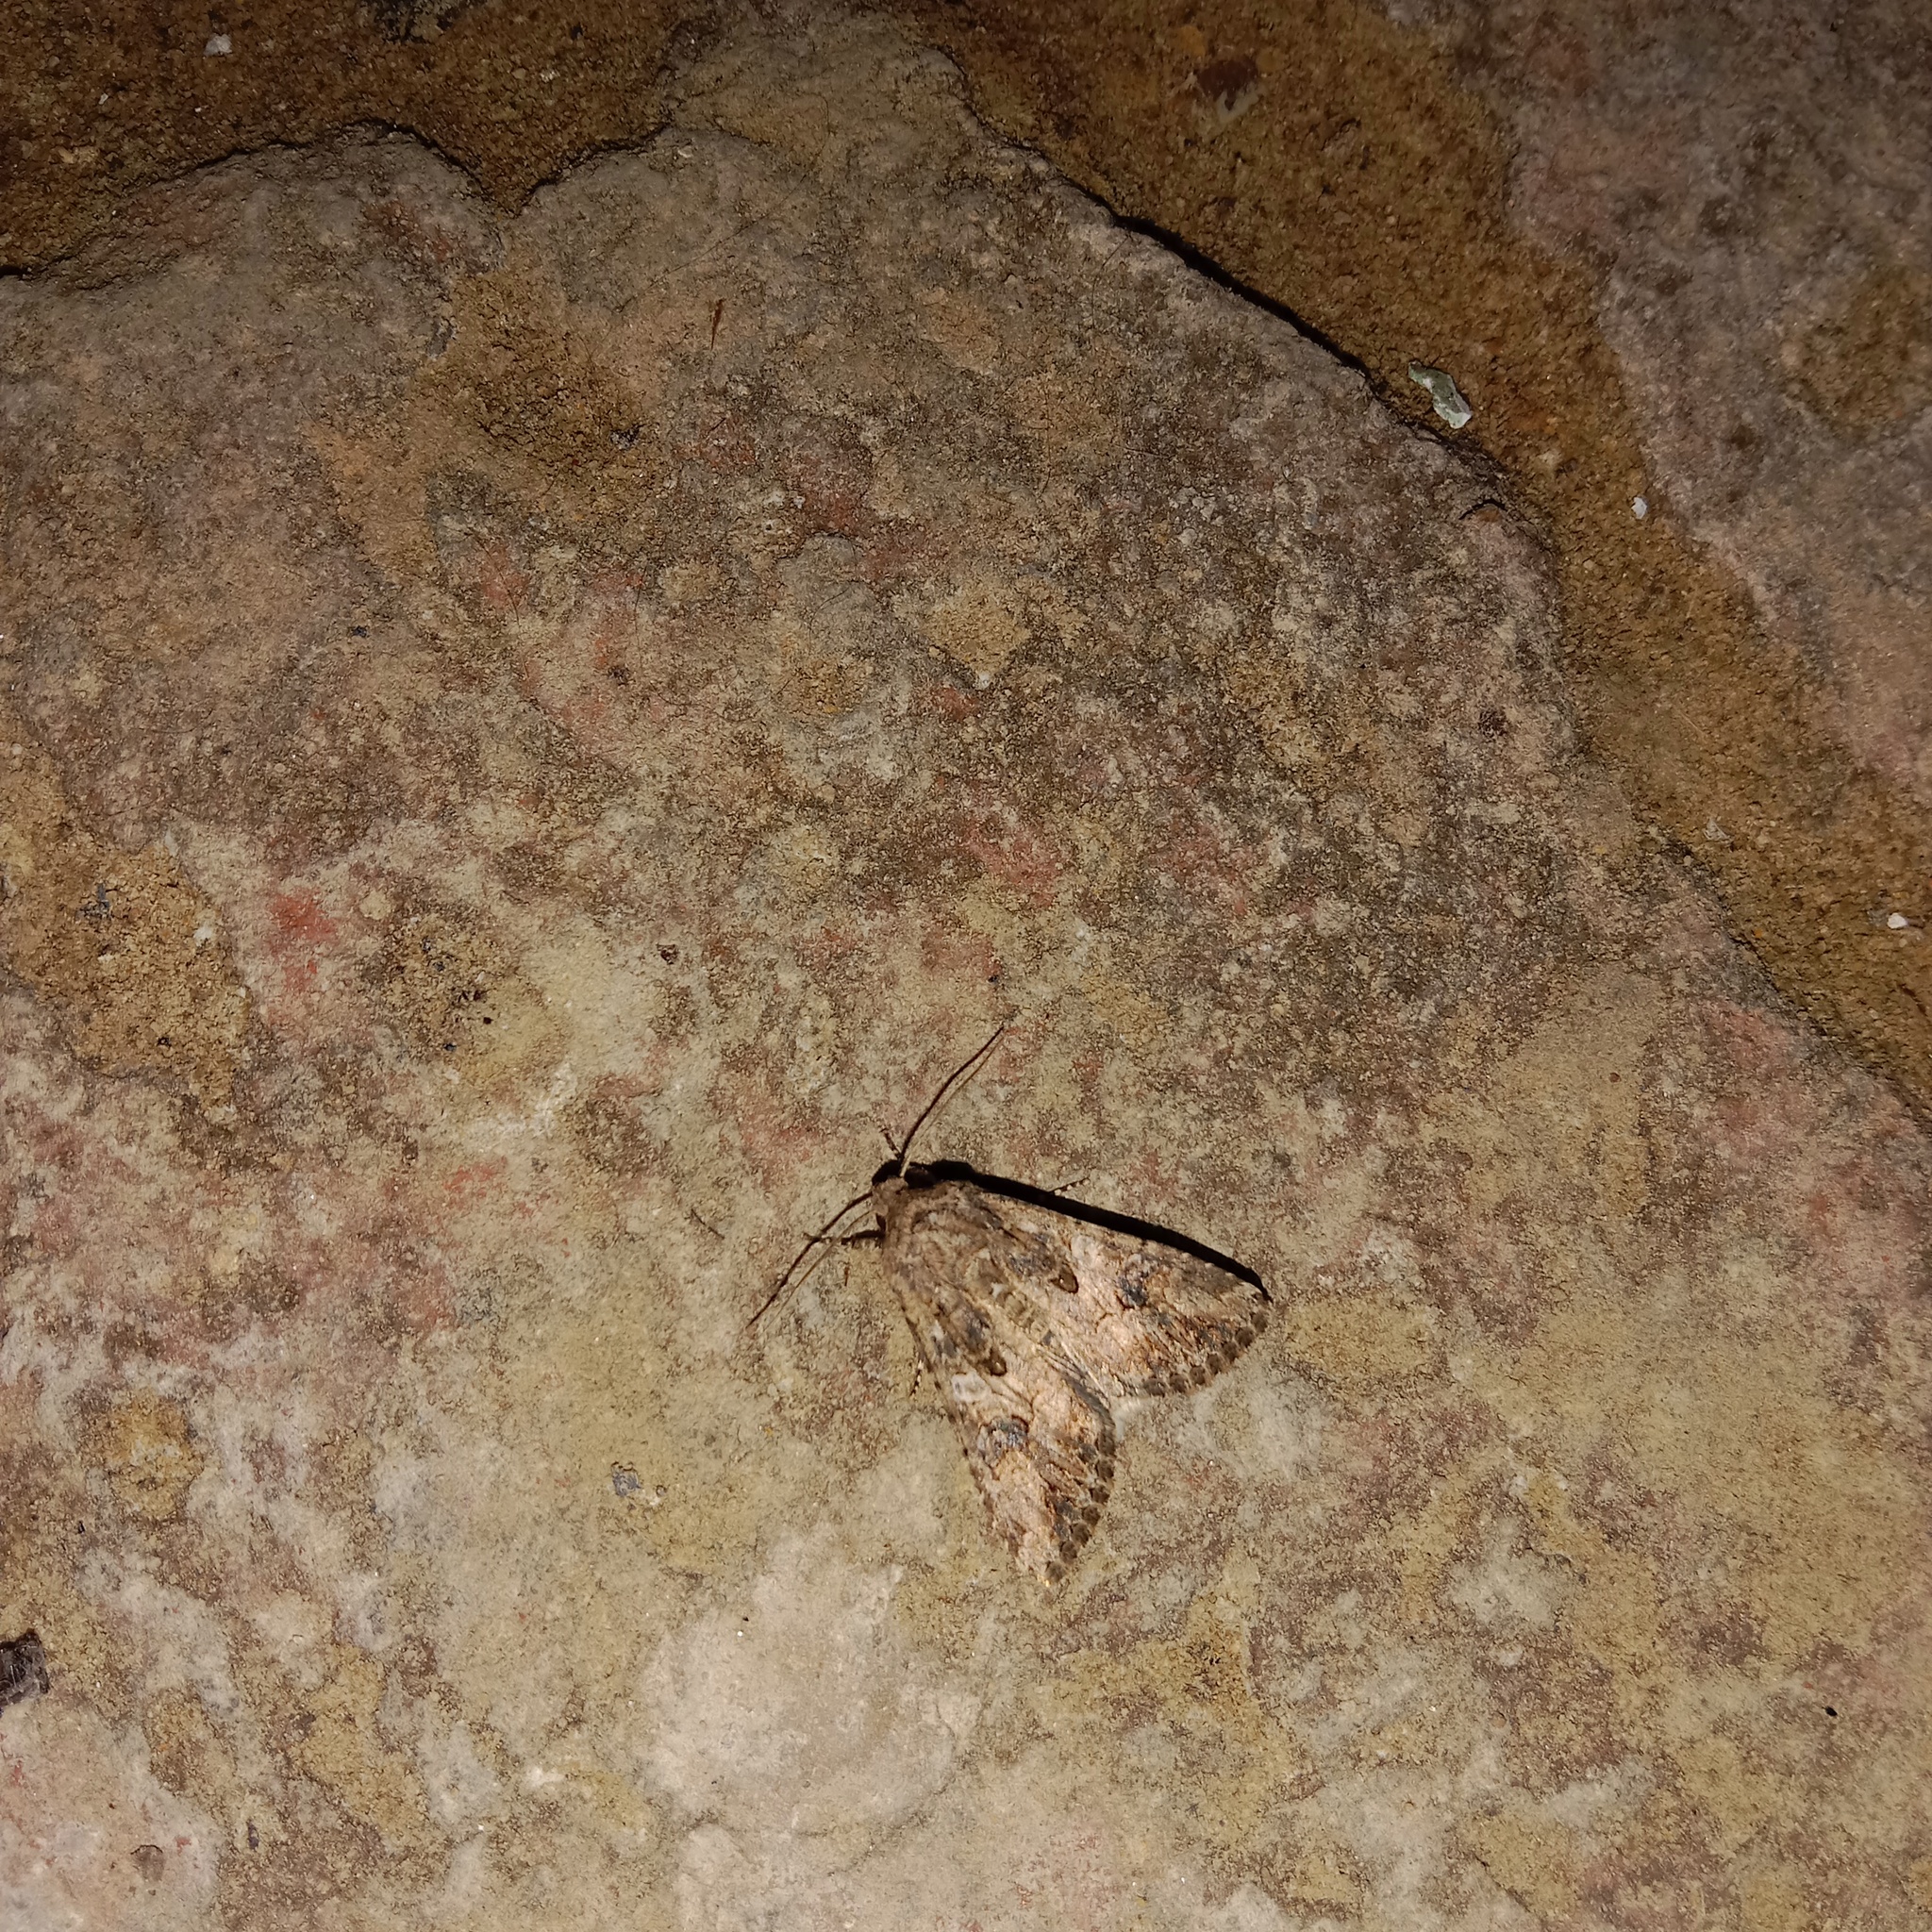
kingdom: Animalia
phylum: Arthropoda
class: Insecta
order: Lepidoptera
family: Noctuidae
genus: Anarta
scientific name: Anarta trifolii
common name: Clover cutworm moth
